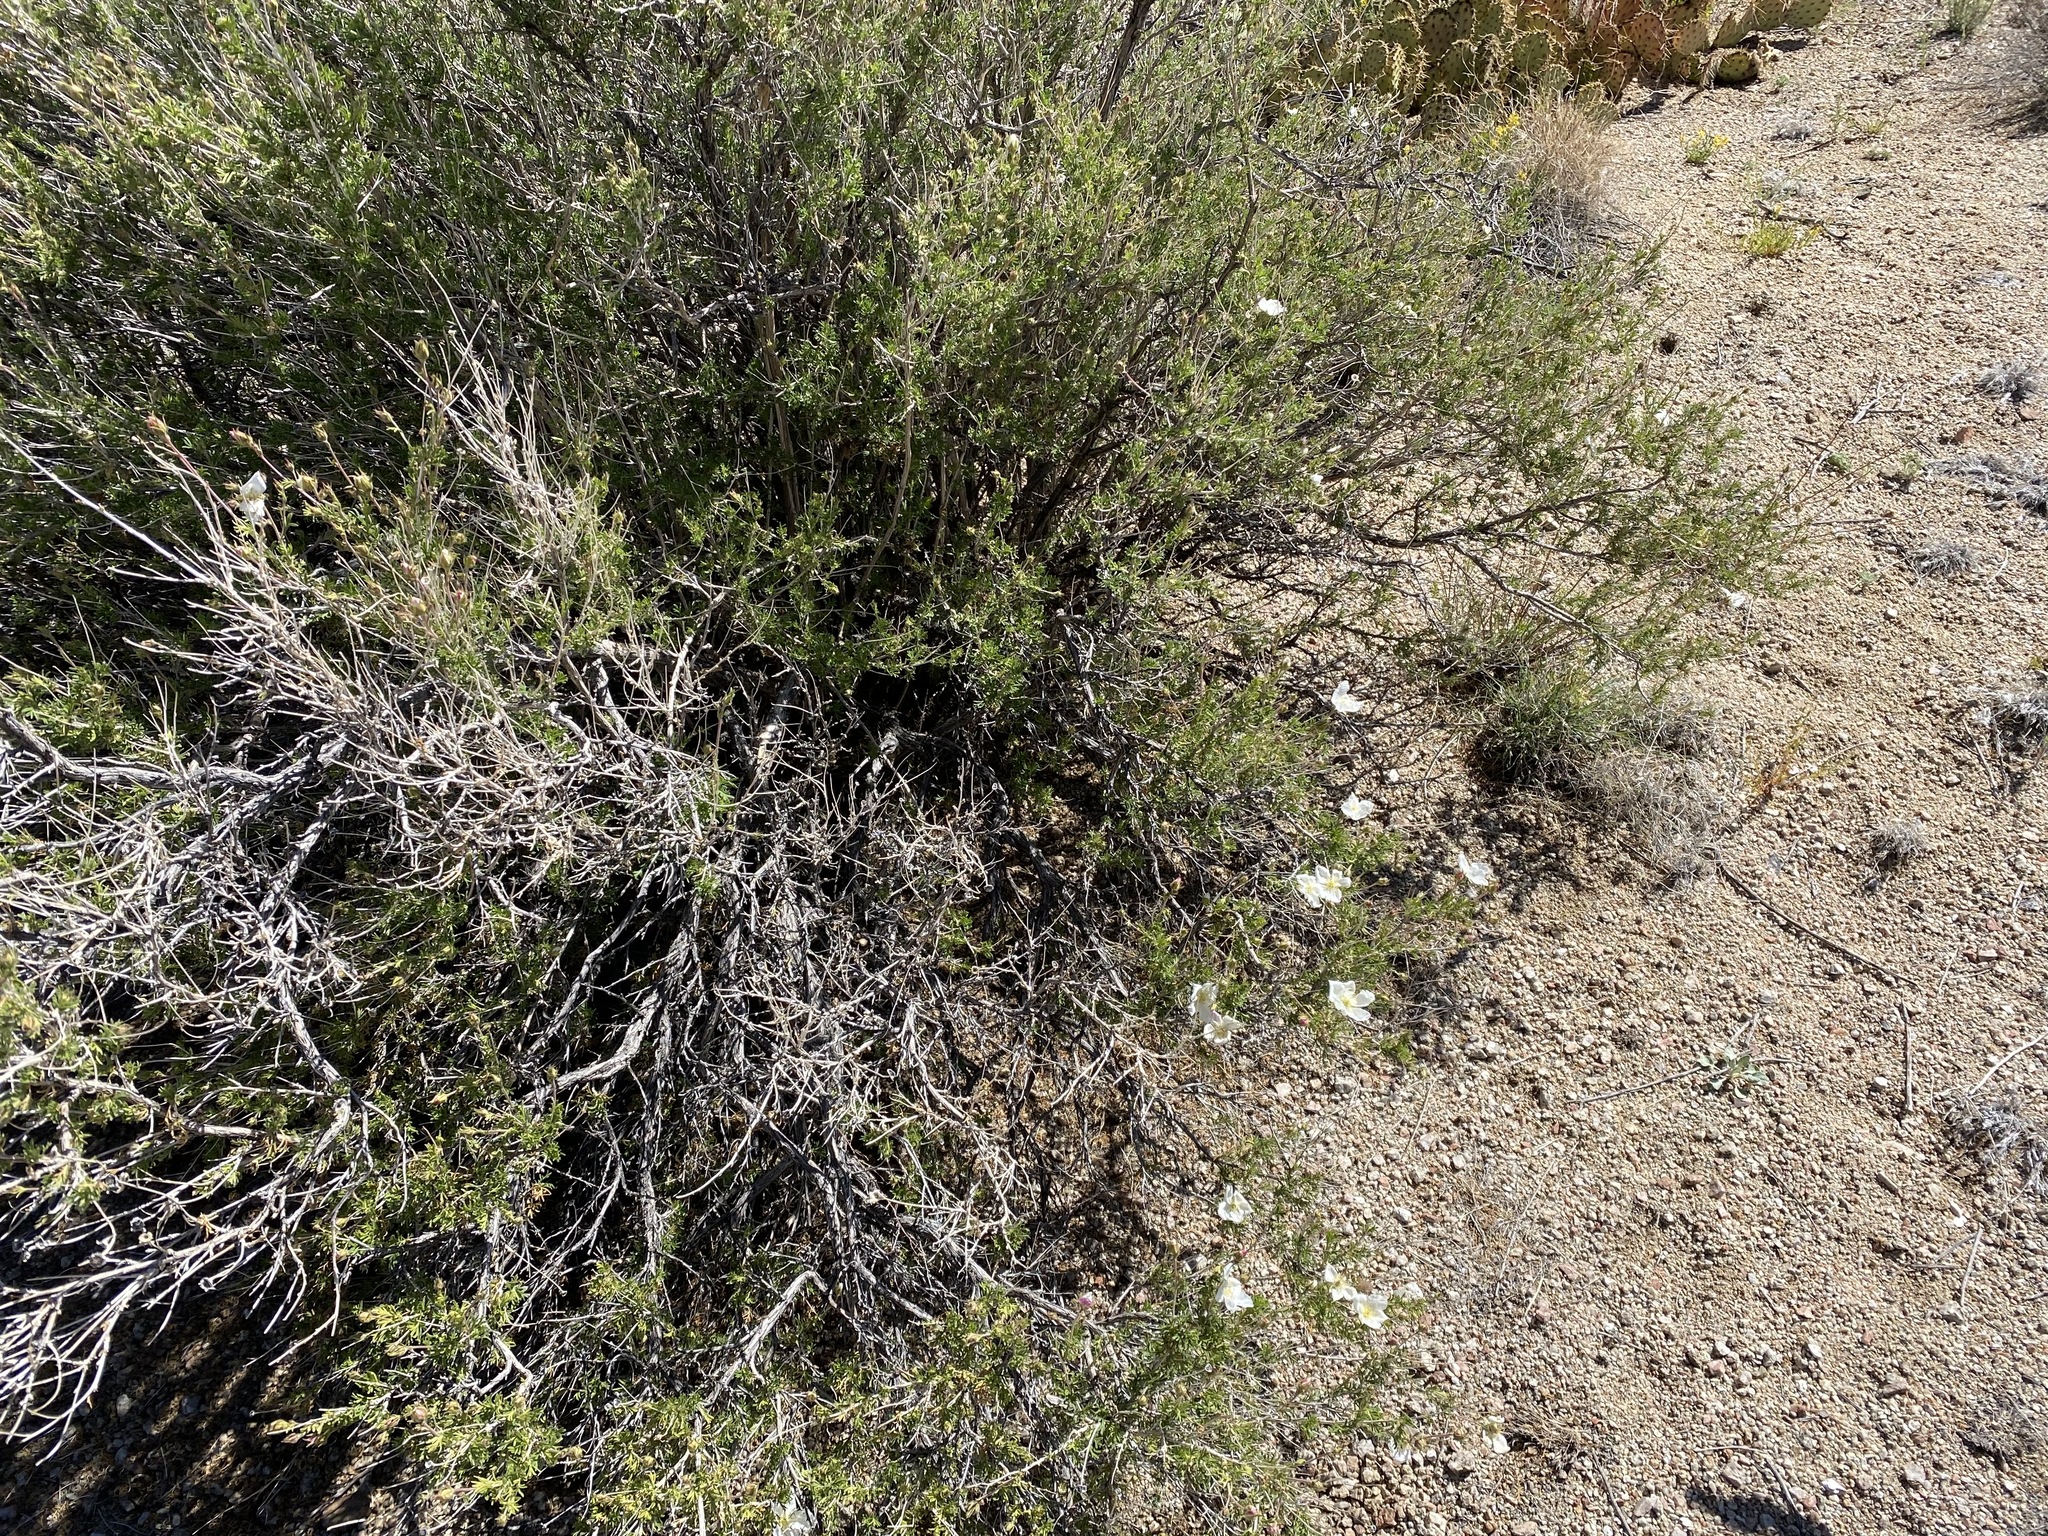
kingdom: Plantae
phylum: Tracheophyta
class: Magnoliopsida
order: Rosales
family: Rosaceae
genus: Fallugia
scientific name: Fallugia paradoxa
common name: Apache-plume
